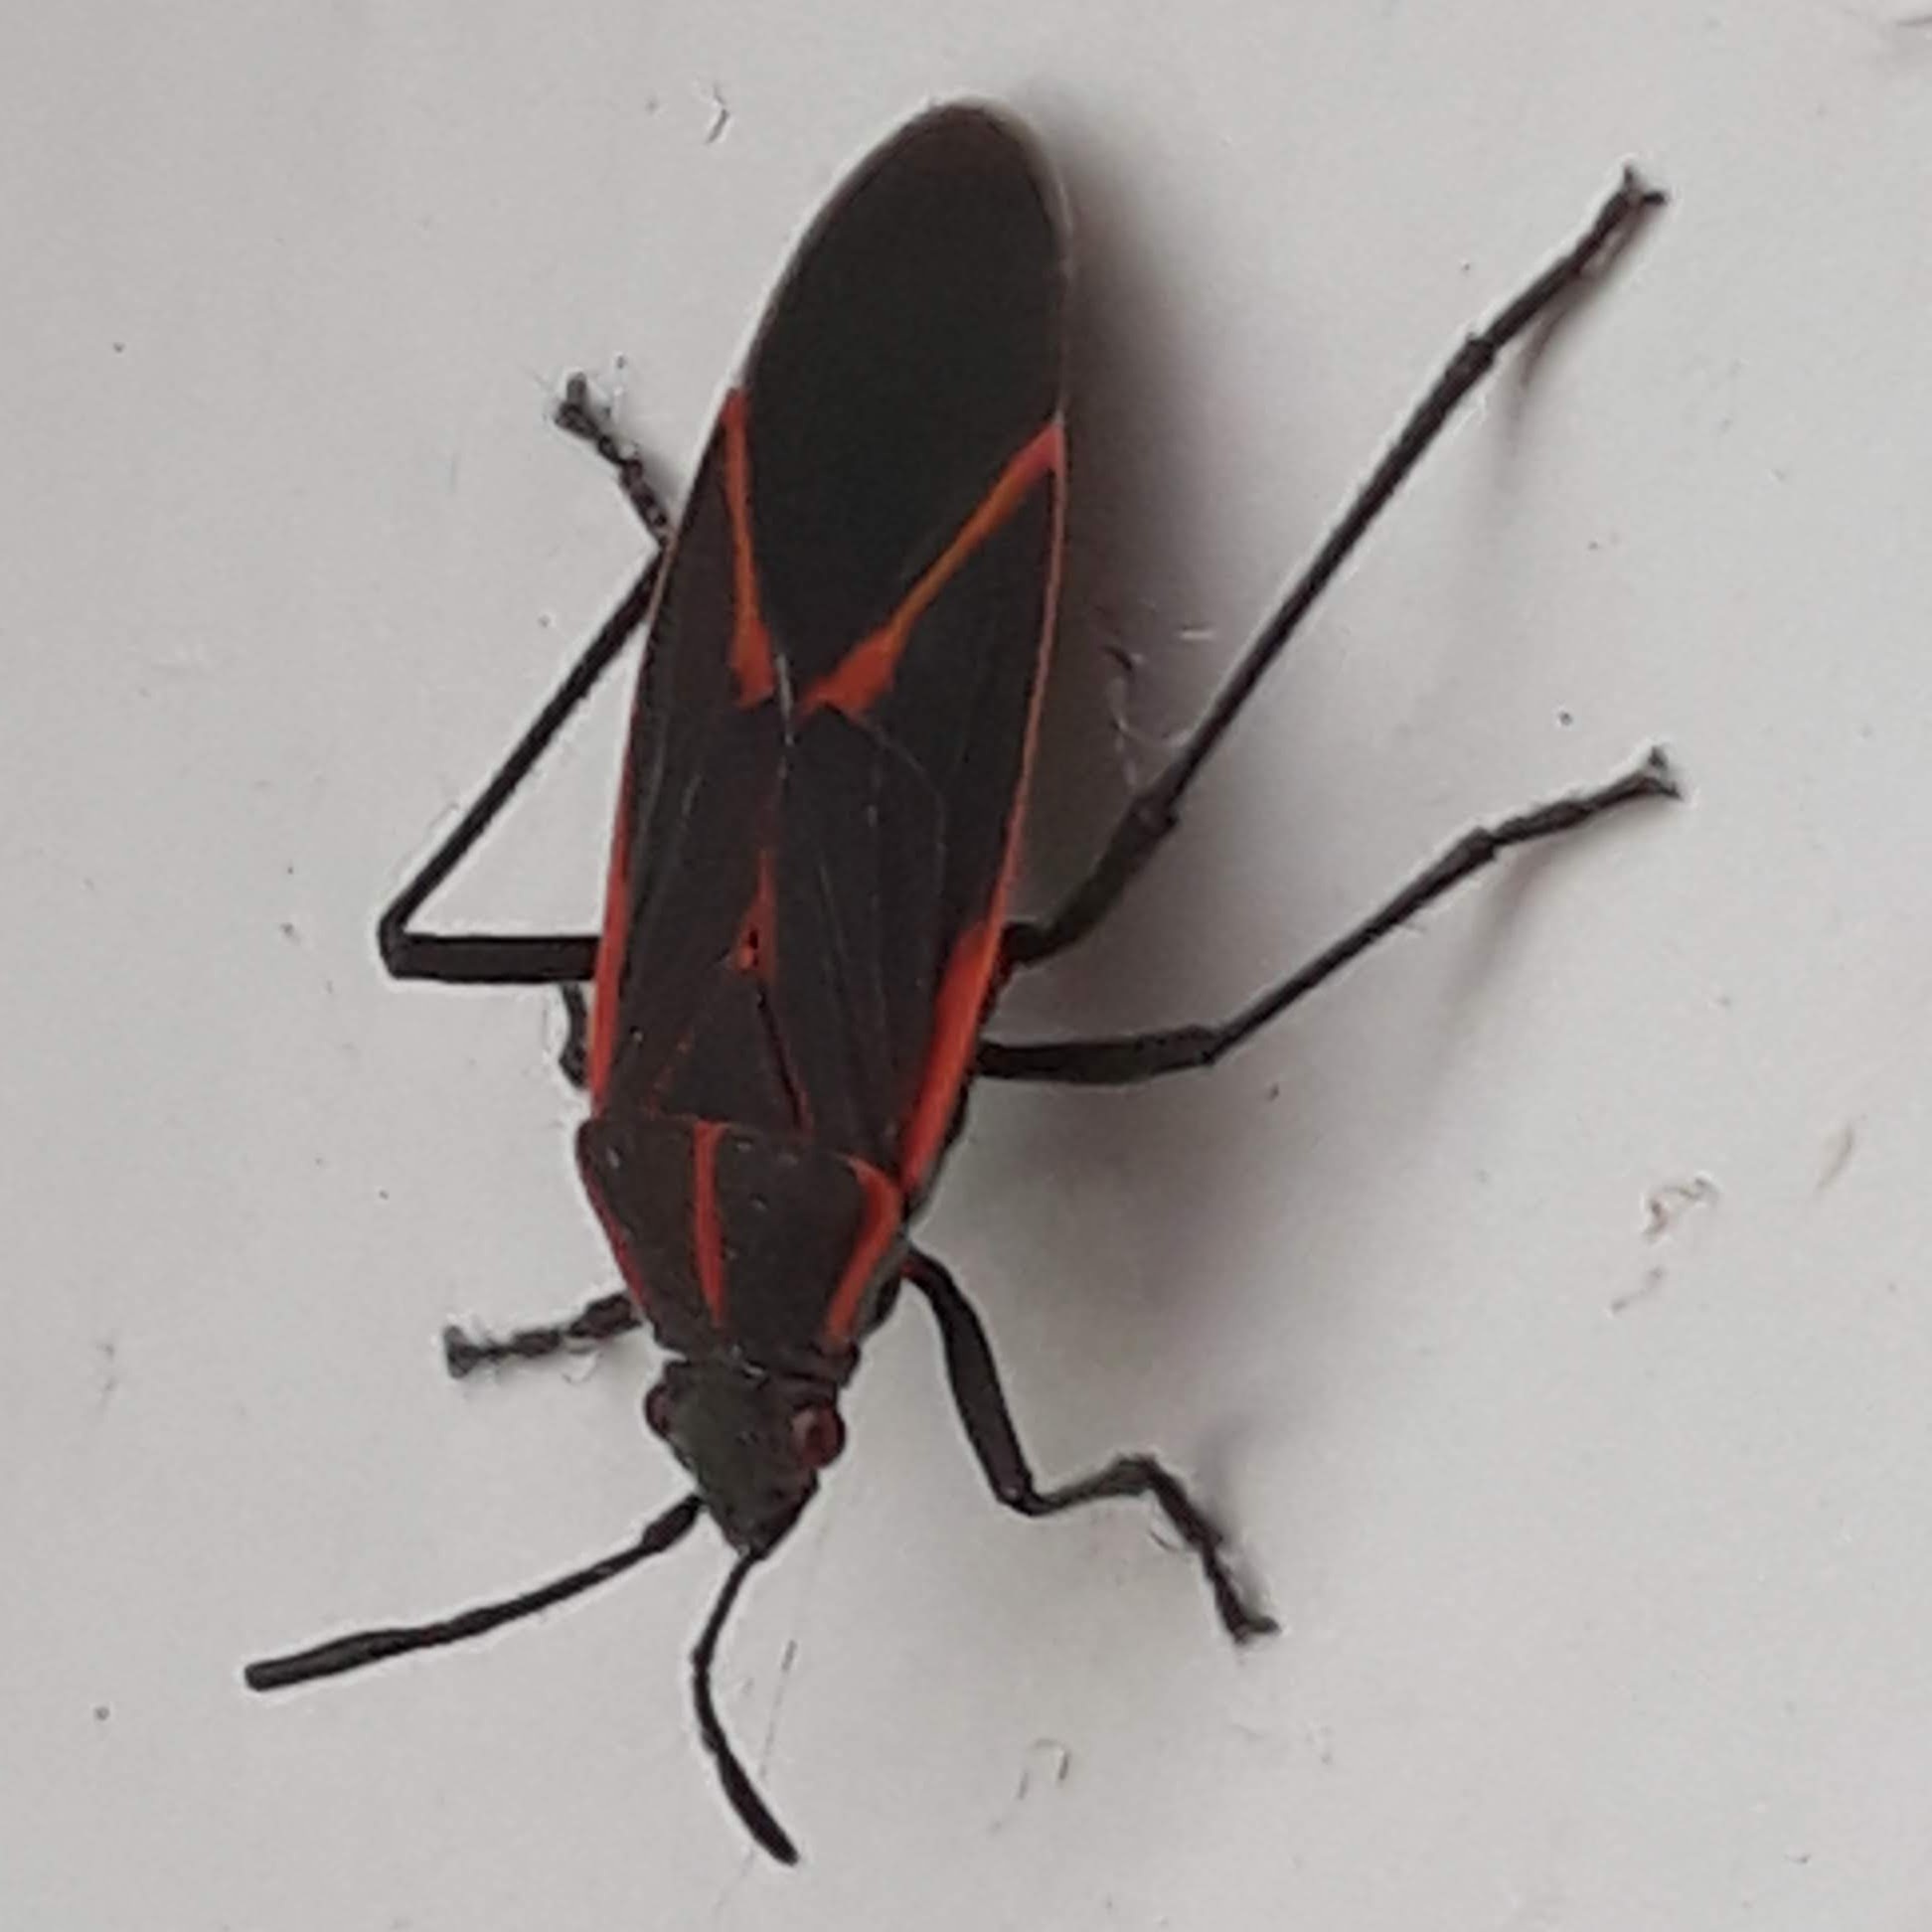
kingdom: Animalia
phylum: Arthropoda
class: Insecta
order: Hemiptera
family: Rhopalidae
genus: Boisea
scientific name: Boisea trivittata
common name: Boxelder bug
